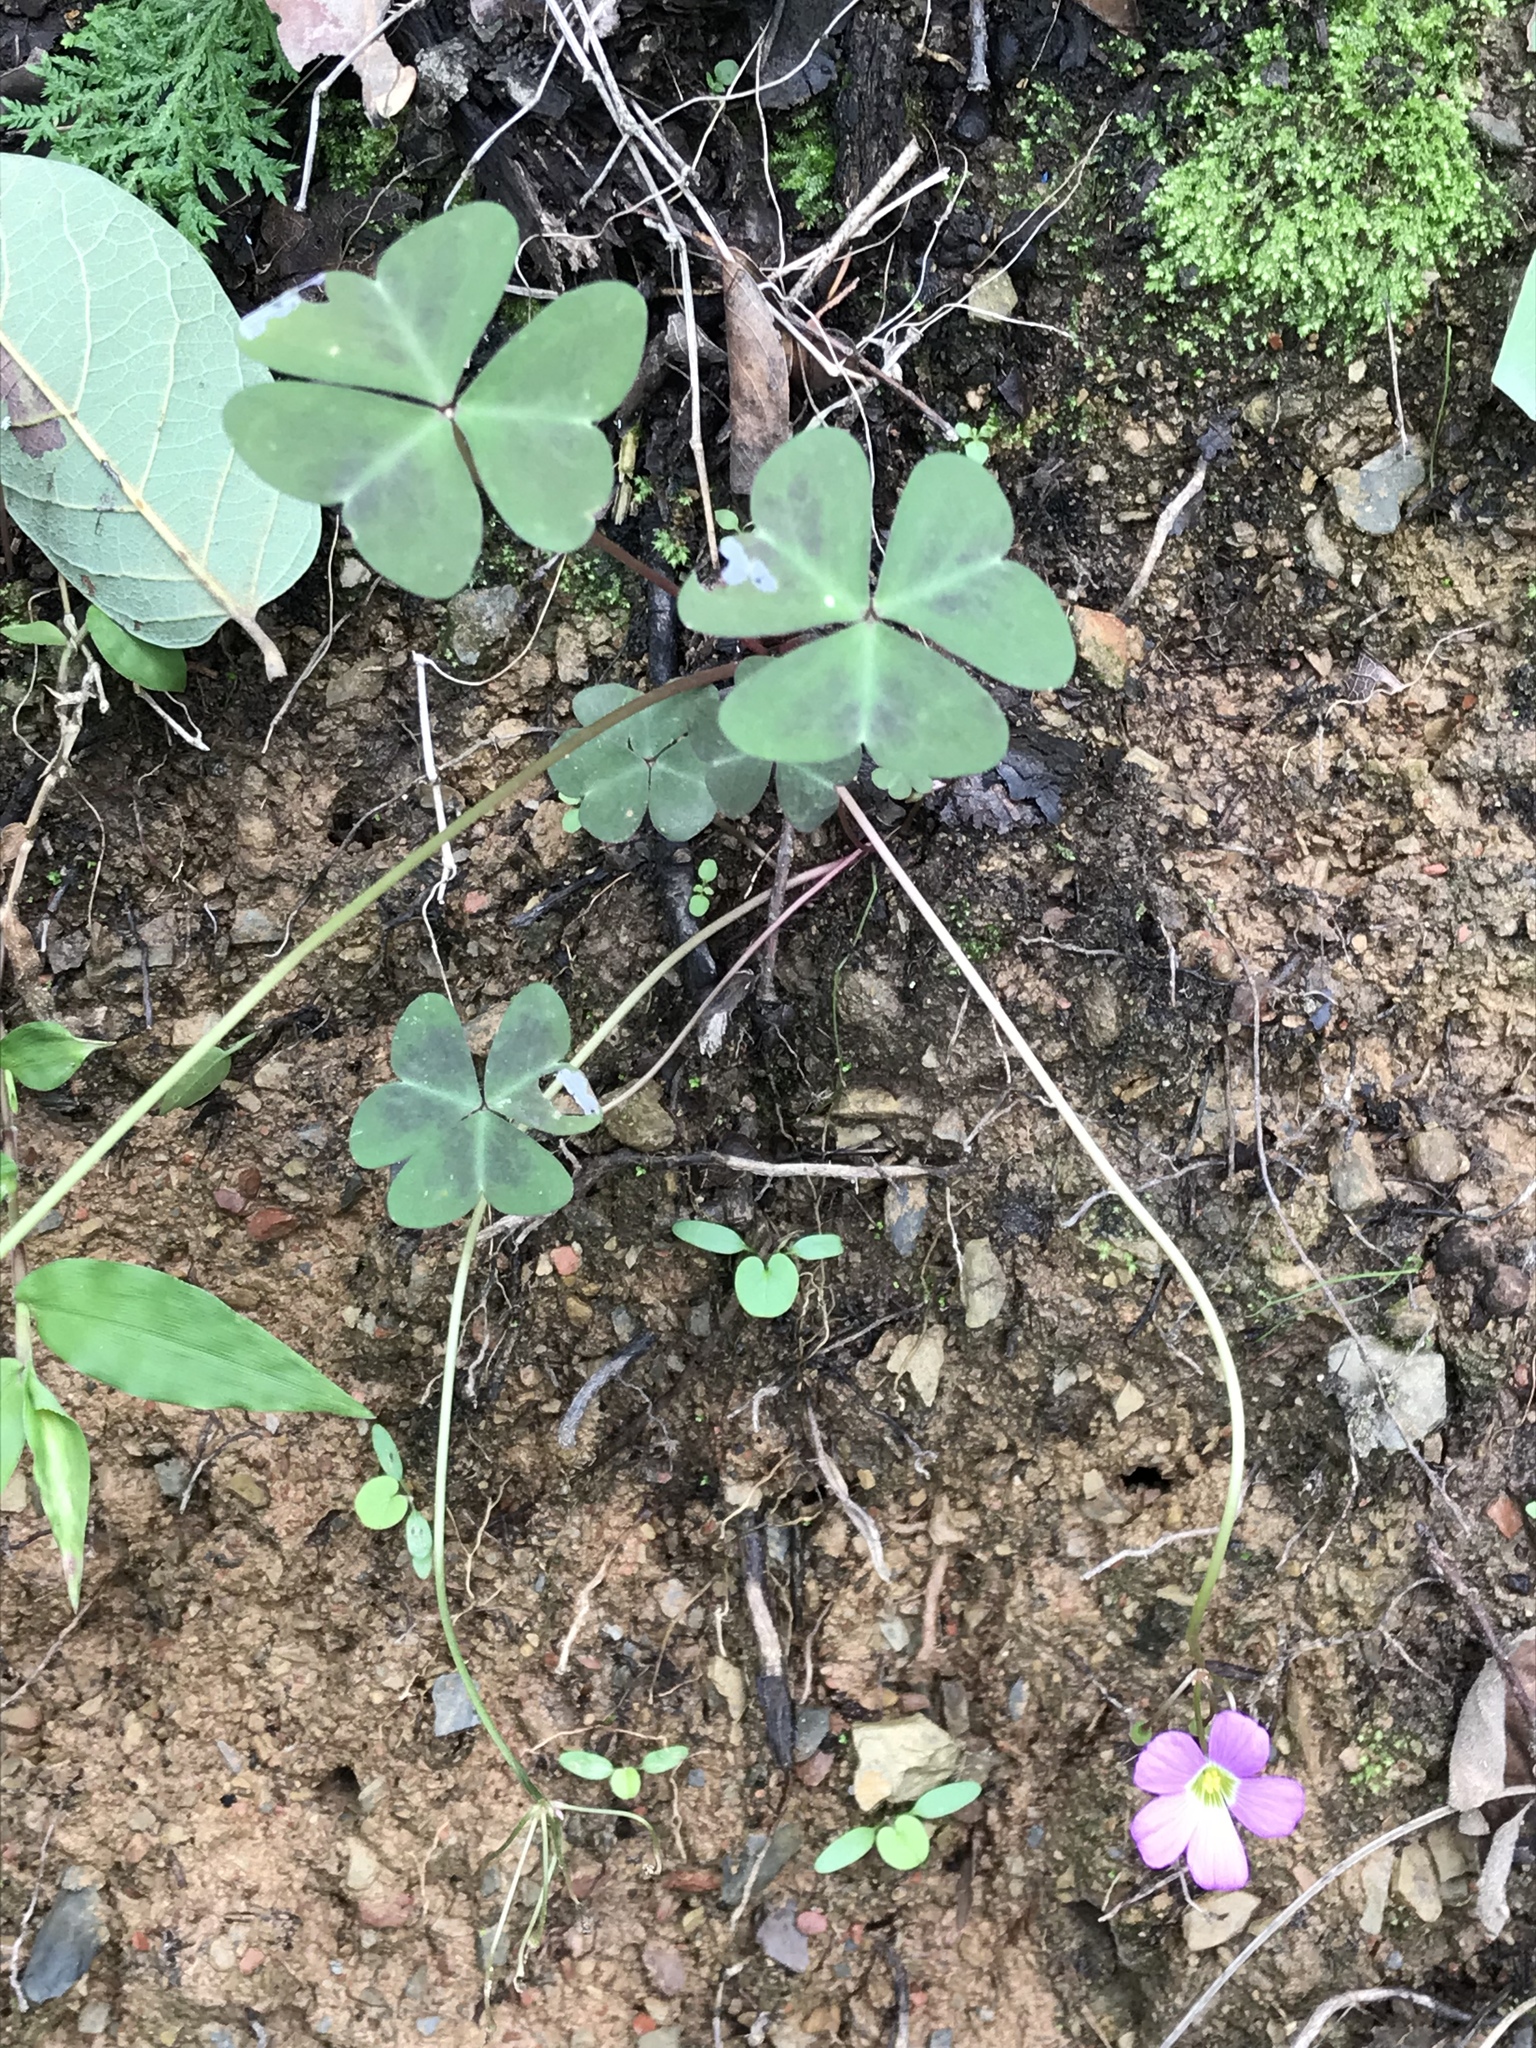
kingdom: Plantae
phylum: Tracheophyta
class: Magnoliopsida
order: Oxalidales
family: Oxalidaceae
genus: Oxalis
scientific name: Oxalis violacea
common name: Violet wood-sorrel
